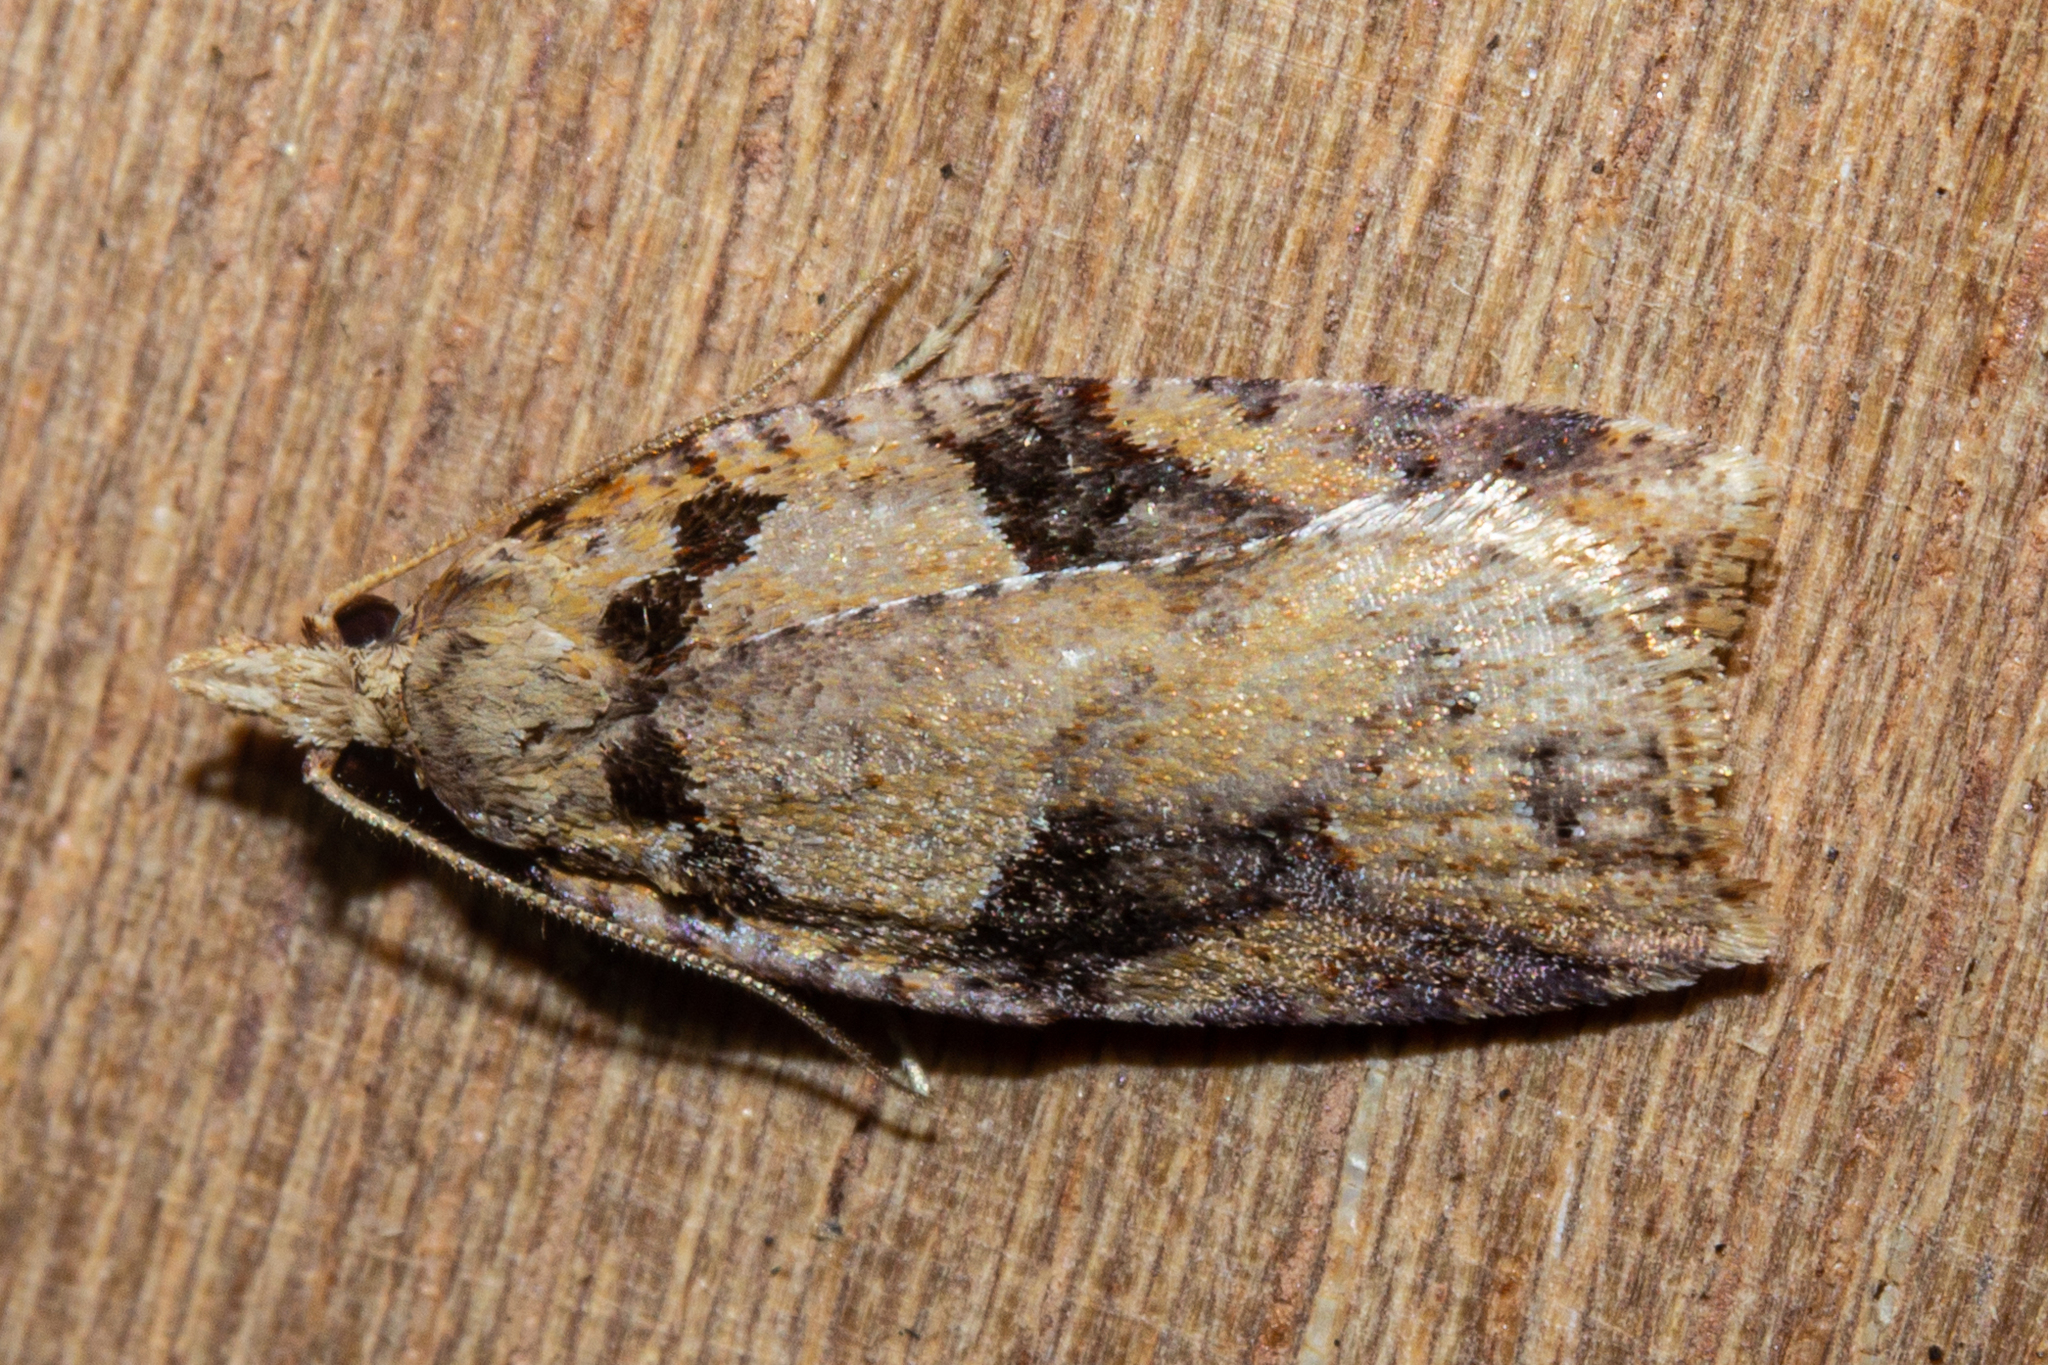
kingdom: Animalia
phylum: Arthropoda
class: Insecta
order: Lepidoptera
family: Tortricidae
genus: Ctenopseustis
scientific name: Ctenopseustis obliquana
